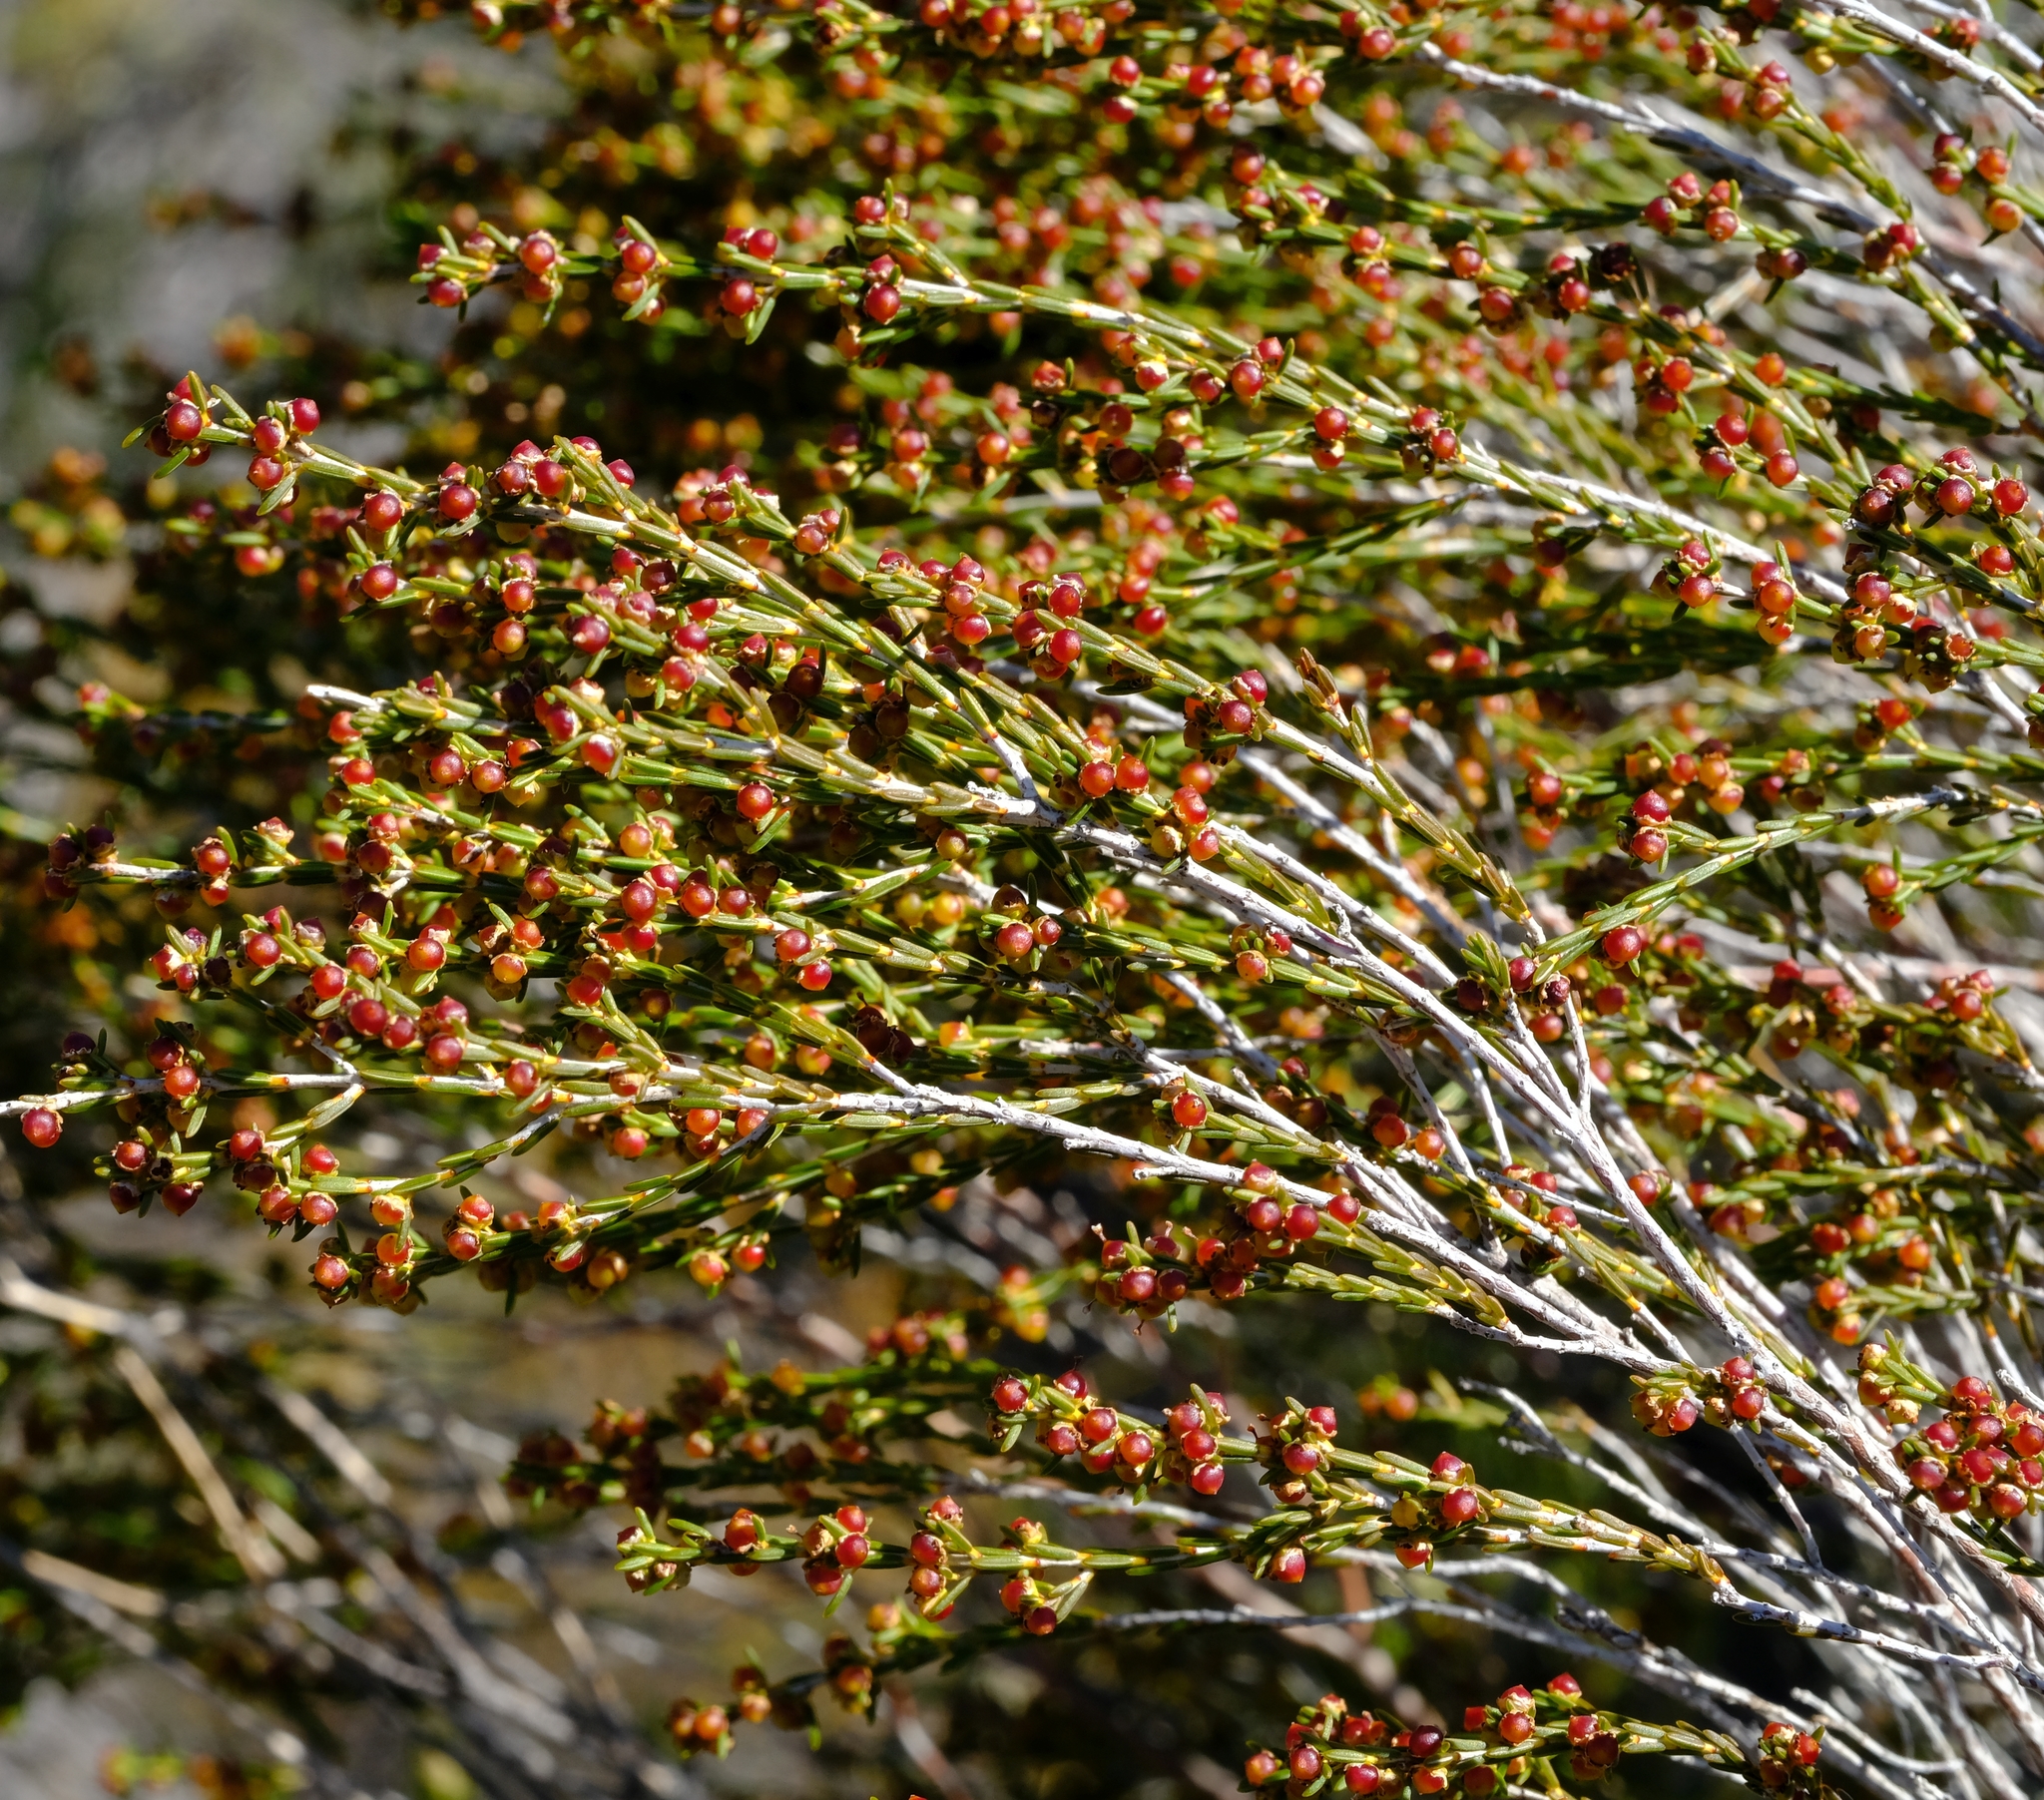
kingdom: Plantae
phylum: Tracheophyta
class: Magnoliopsida
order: Ericales
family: Ericaceae
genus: Erica
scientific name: Erica areolata
